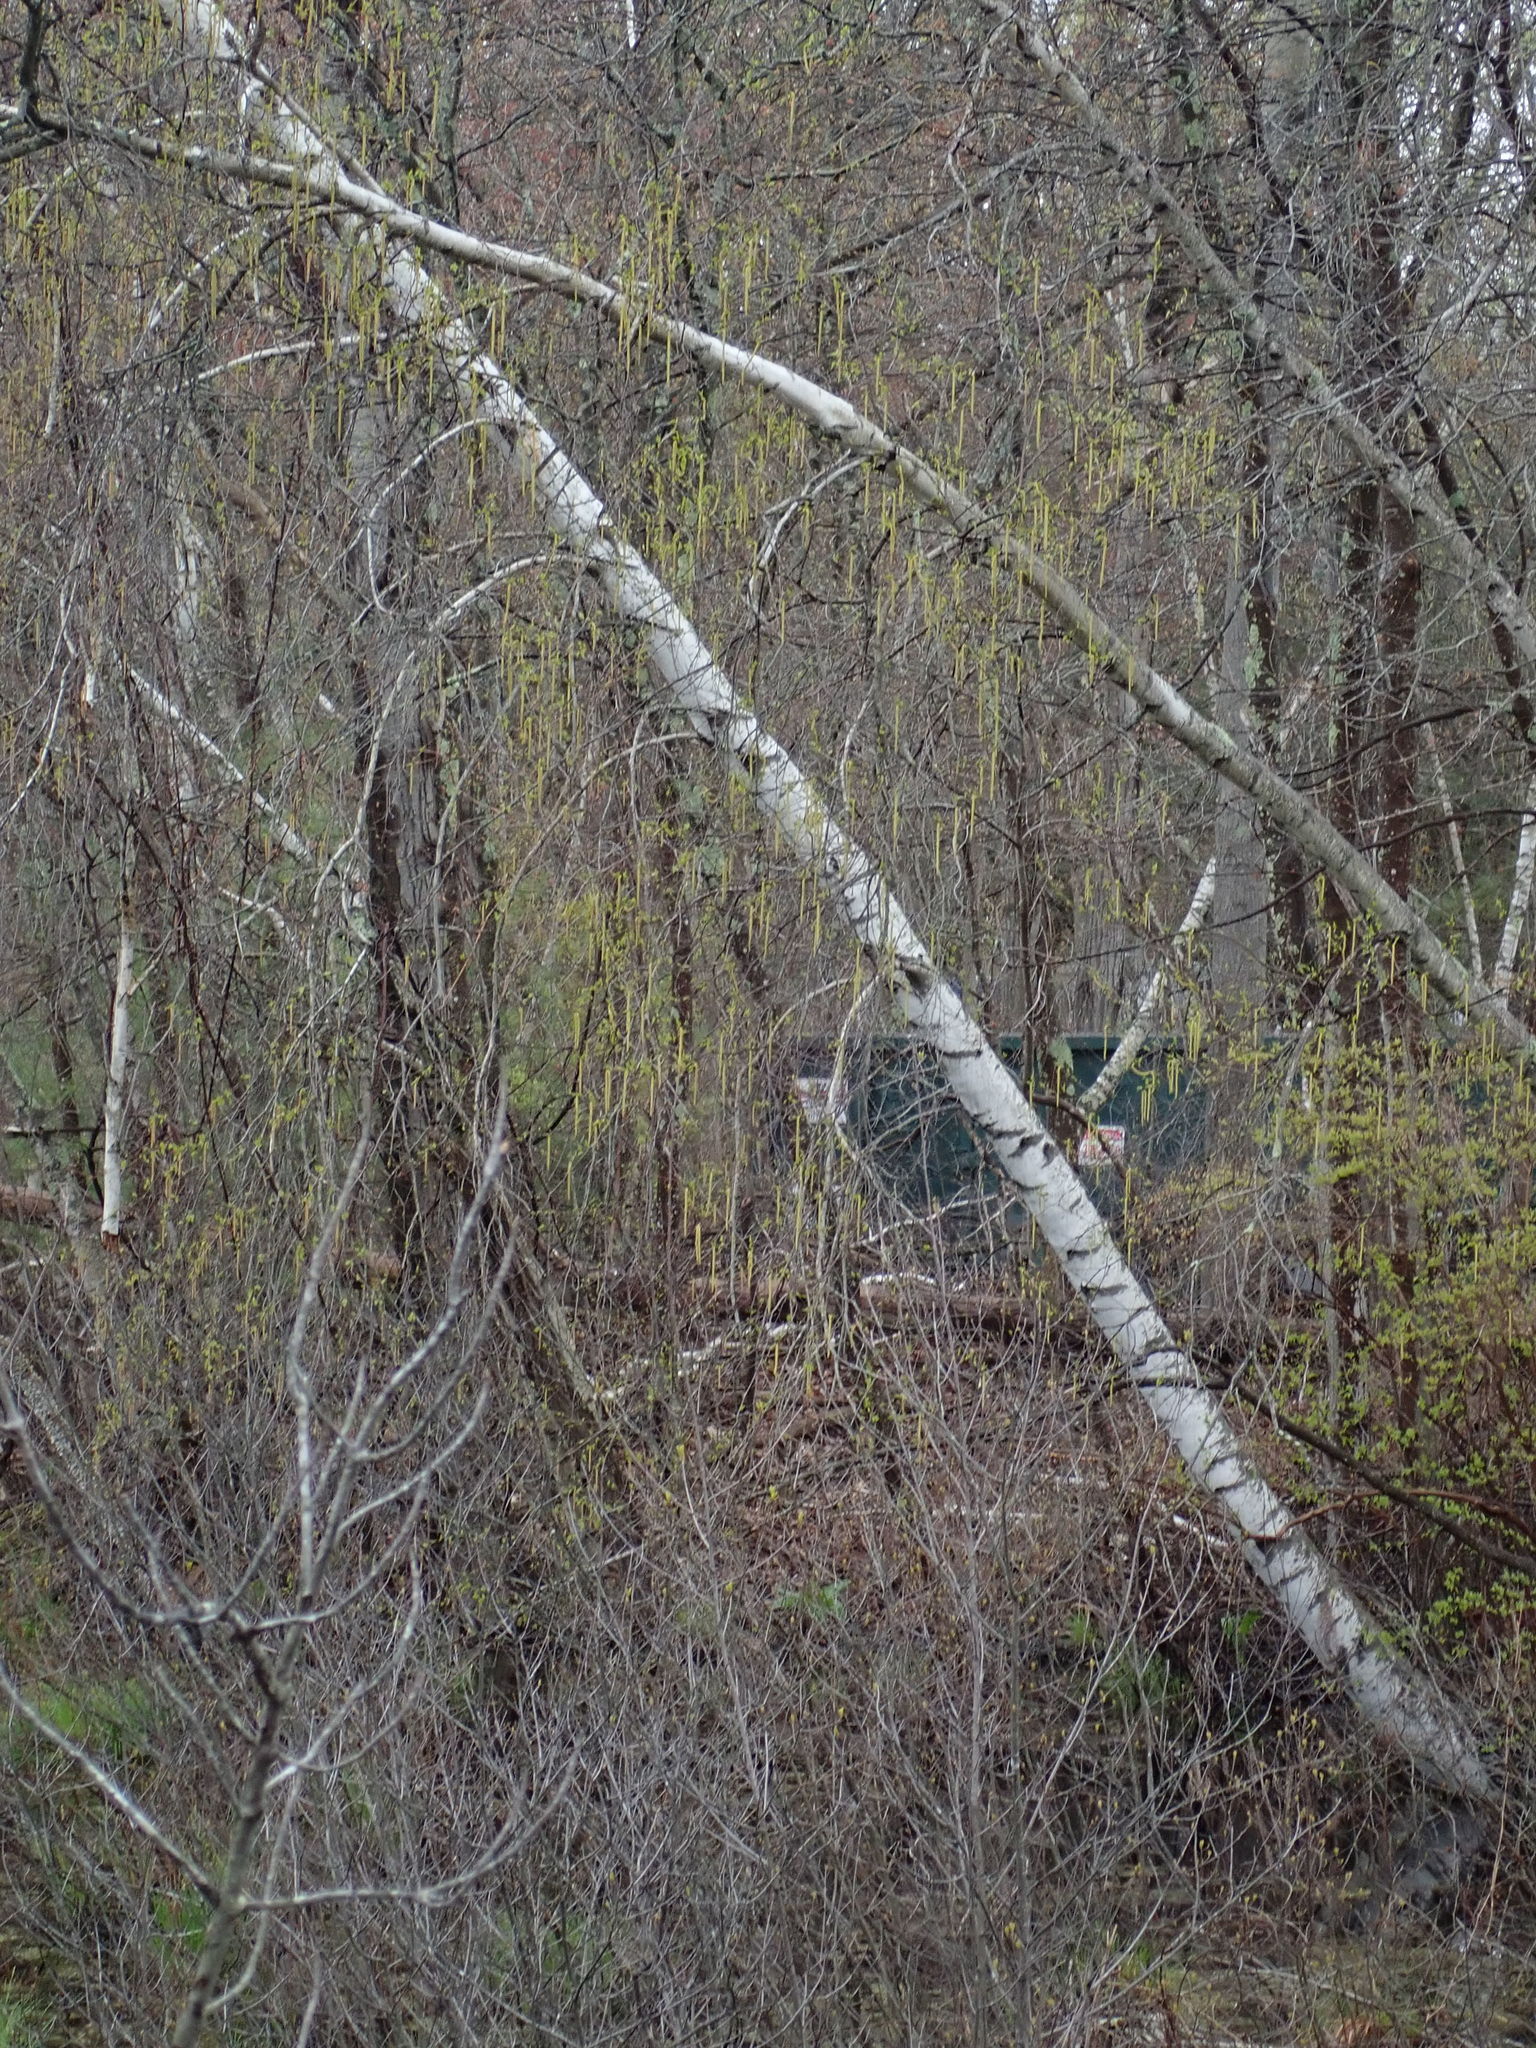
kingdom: Plantae
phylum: Tracheophyta
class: Magnoliopsida
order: Fagales
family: Betulaceae
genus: Betula
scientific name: Betula populifolia
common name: Fire birch
